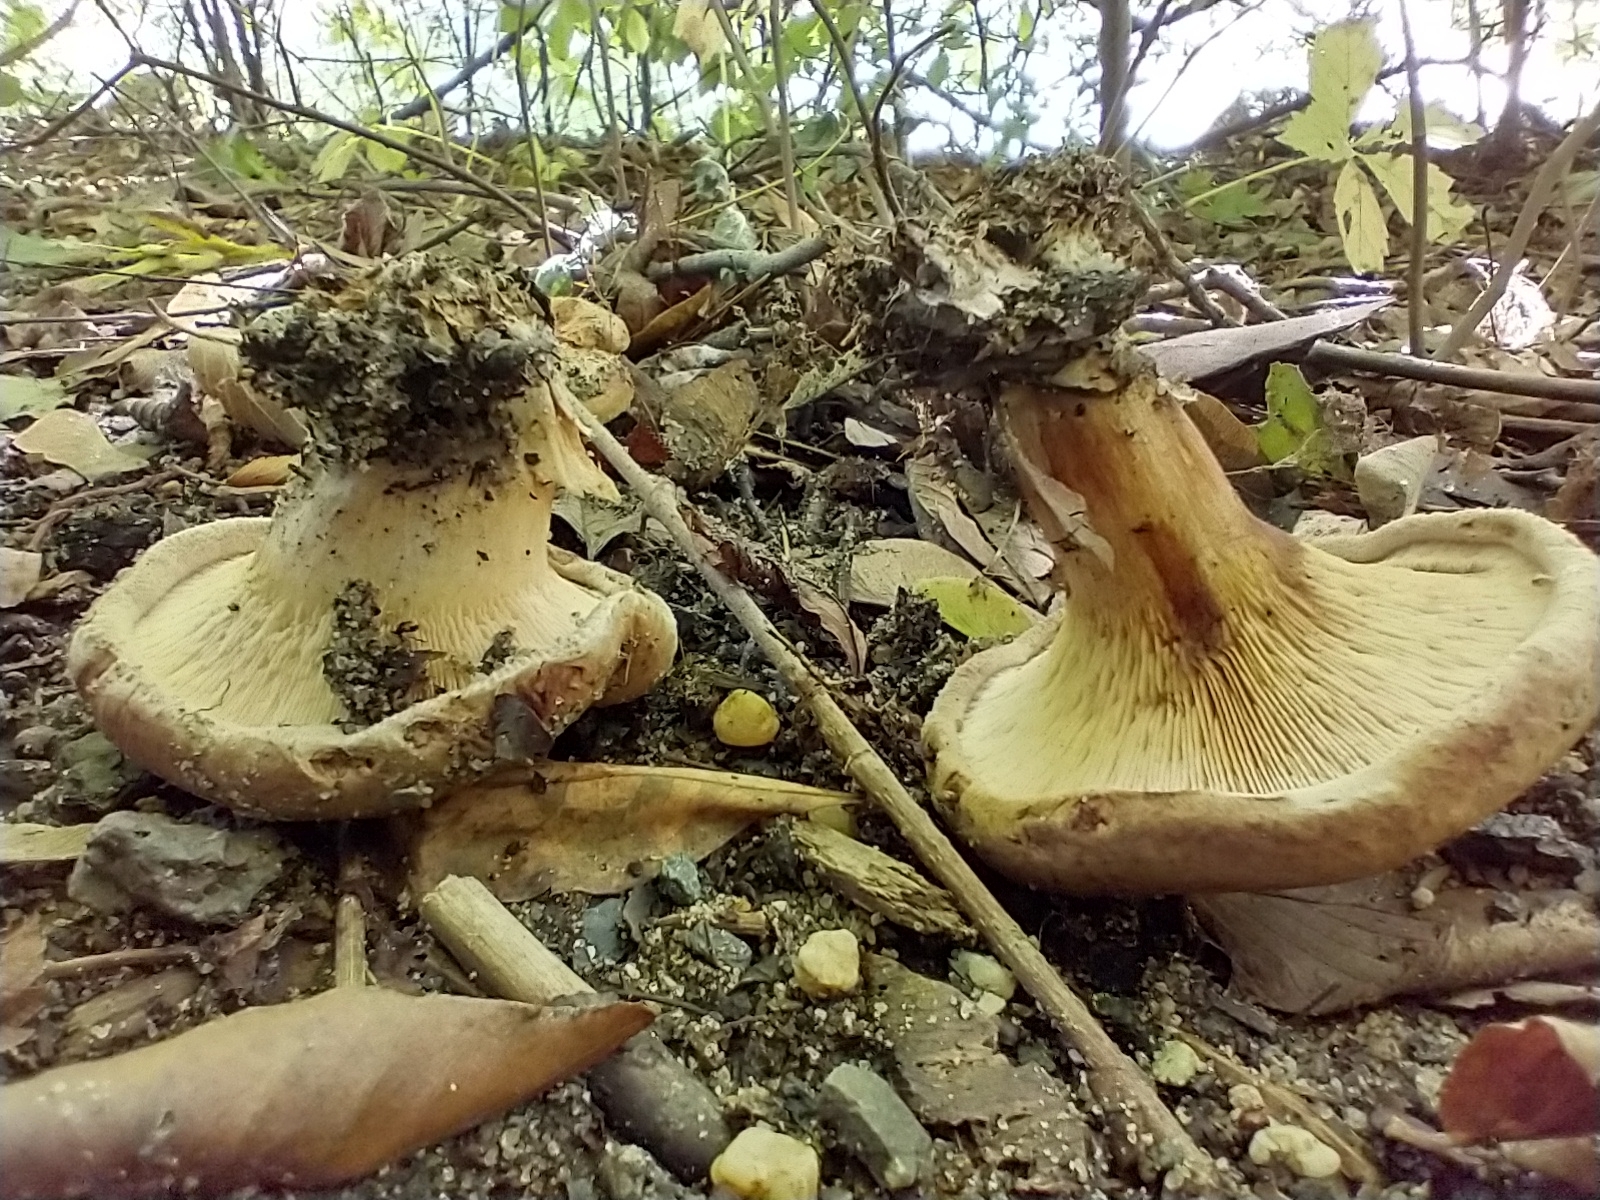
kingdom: Fungi
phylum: Basidiomycota
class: Agaricomycetes
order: Boletales
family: Paxillaceae
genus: Paxillus
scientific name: Paxillus involutus
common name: Brown roll rim
